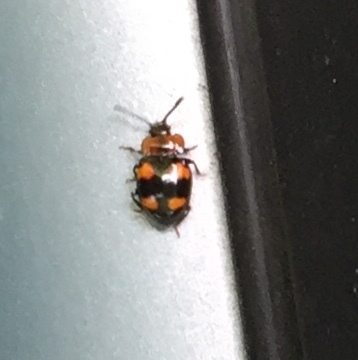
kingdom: Animalia
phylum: Arthropoda
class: Insecta
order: Coleoptera
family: Endomychidae
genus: Mycetina
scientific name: Mycetina perpulchra
